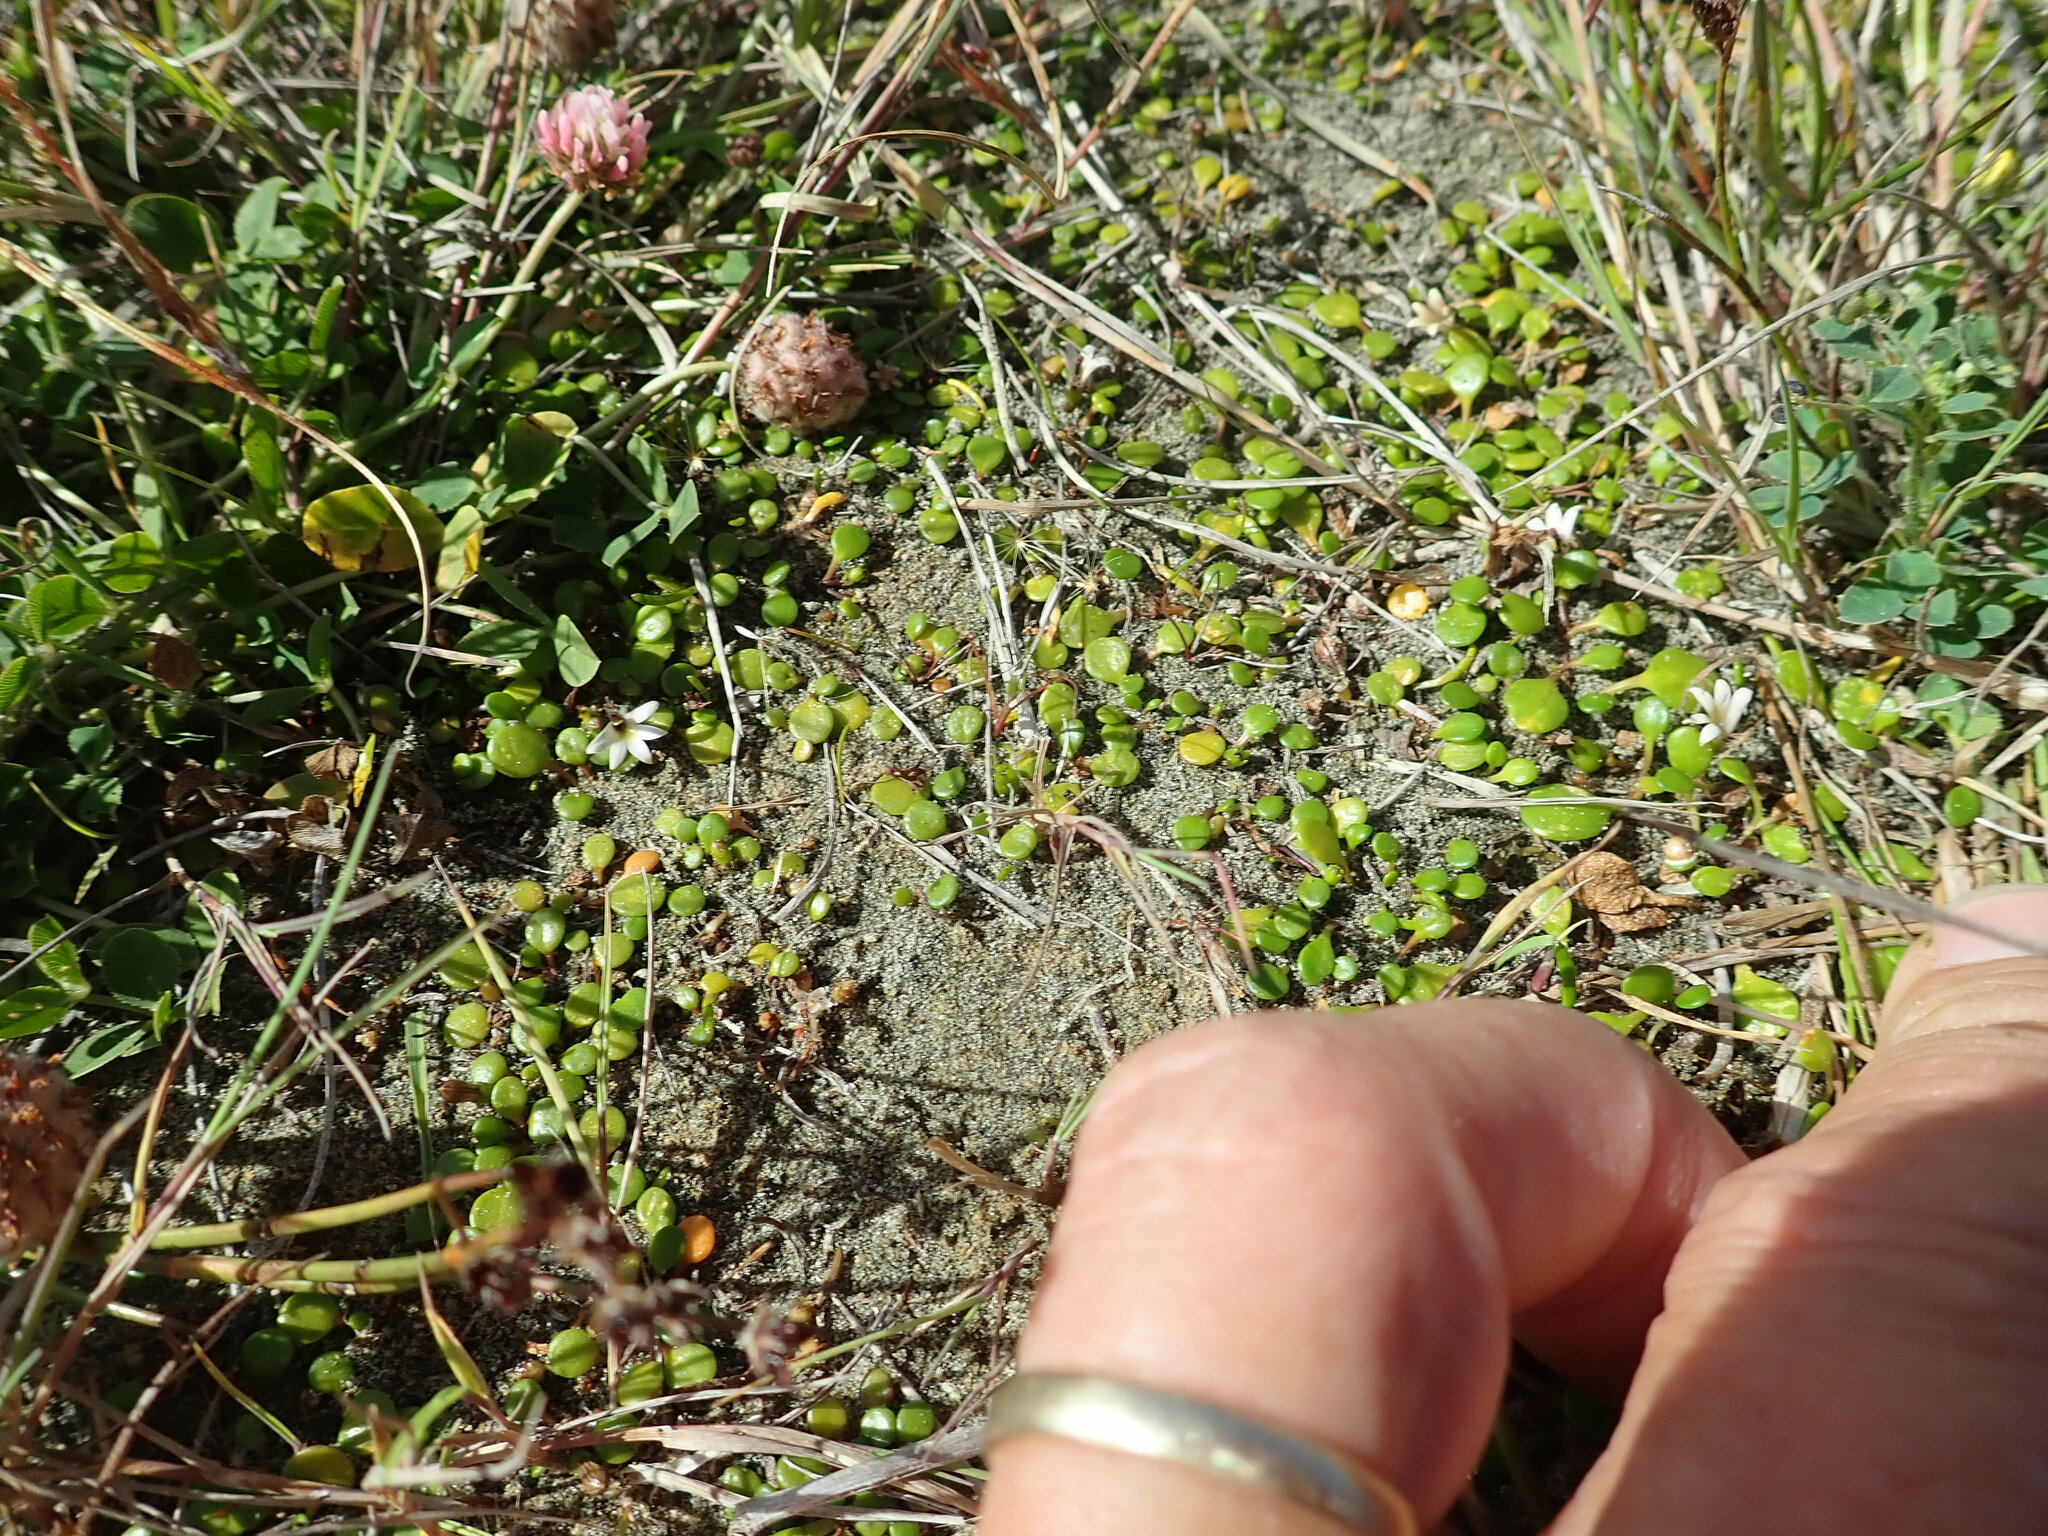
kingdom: Plantae
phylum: Tracheophyta
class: Magnoliopsida
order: Asterales
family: Goodeniaceae
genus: Goodenia
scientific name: Goodenia heenanii
